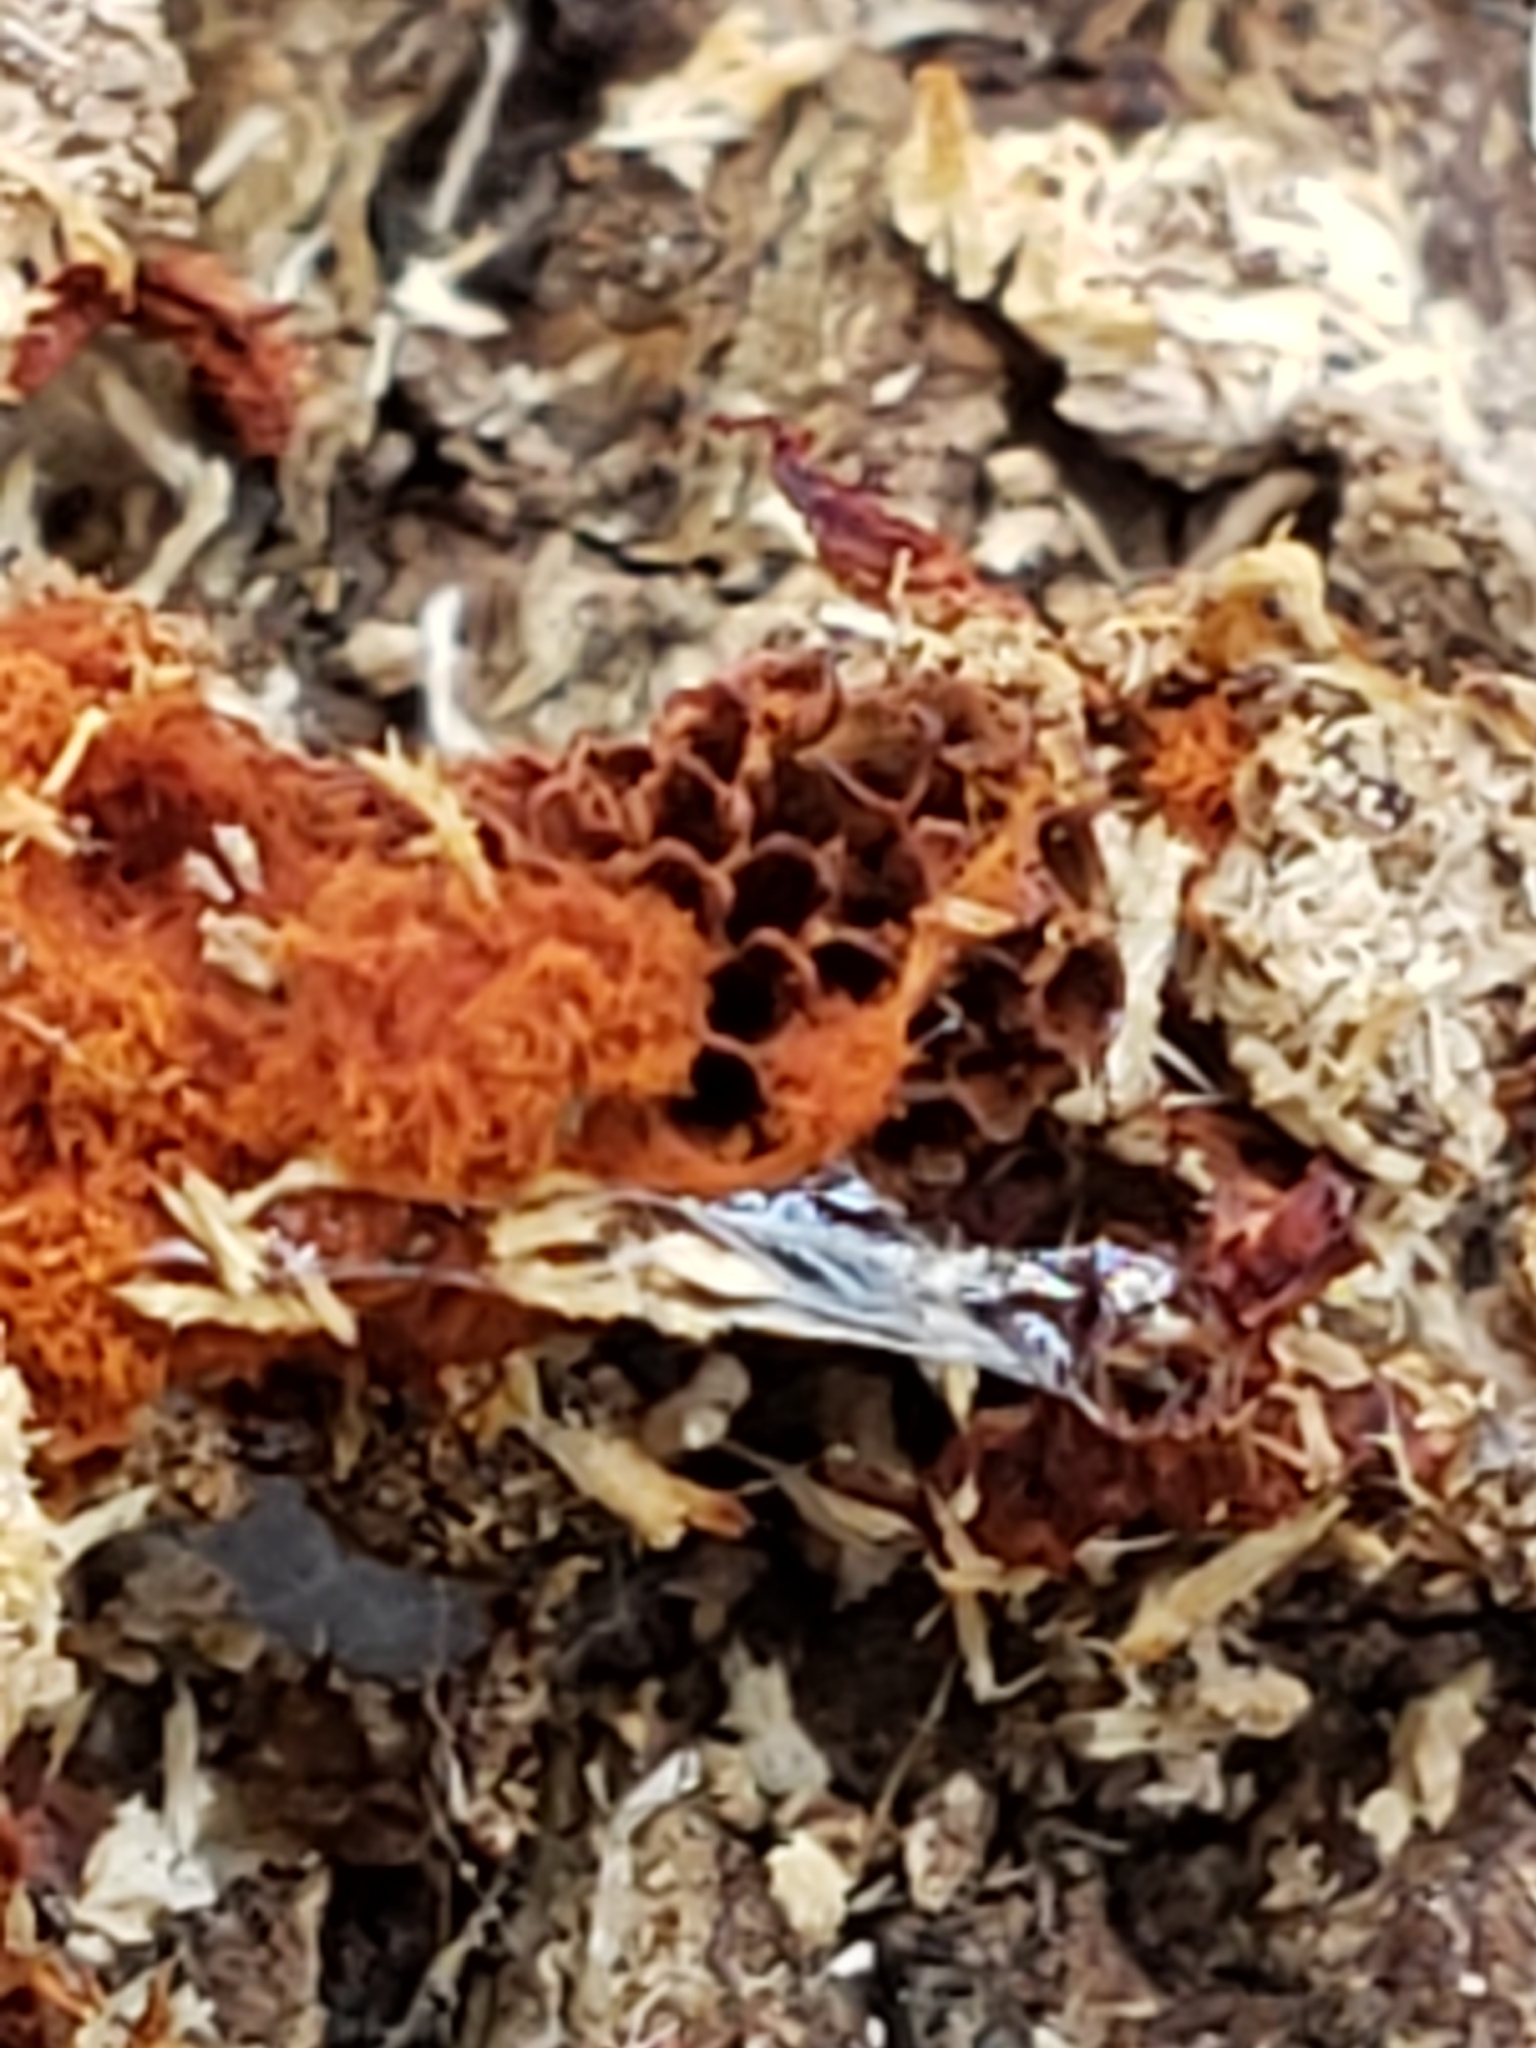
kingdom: Protozoa
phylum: Mycetozoa
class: Myxomycetes
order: Trichiales
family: Trichiaceae
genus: Metatrichia
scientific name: Metatrichia vesparia
